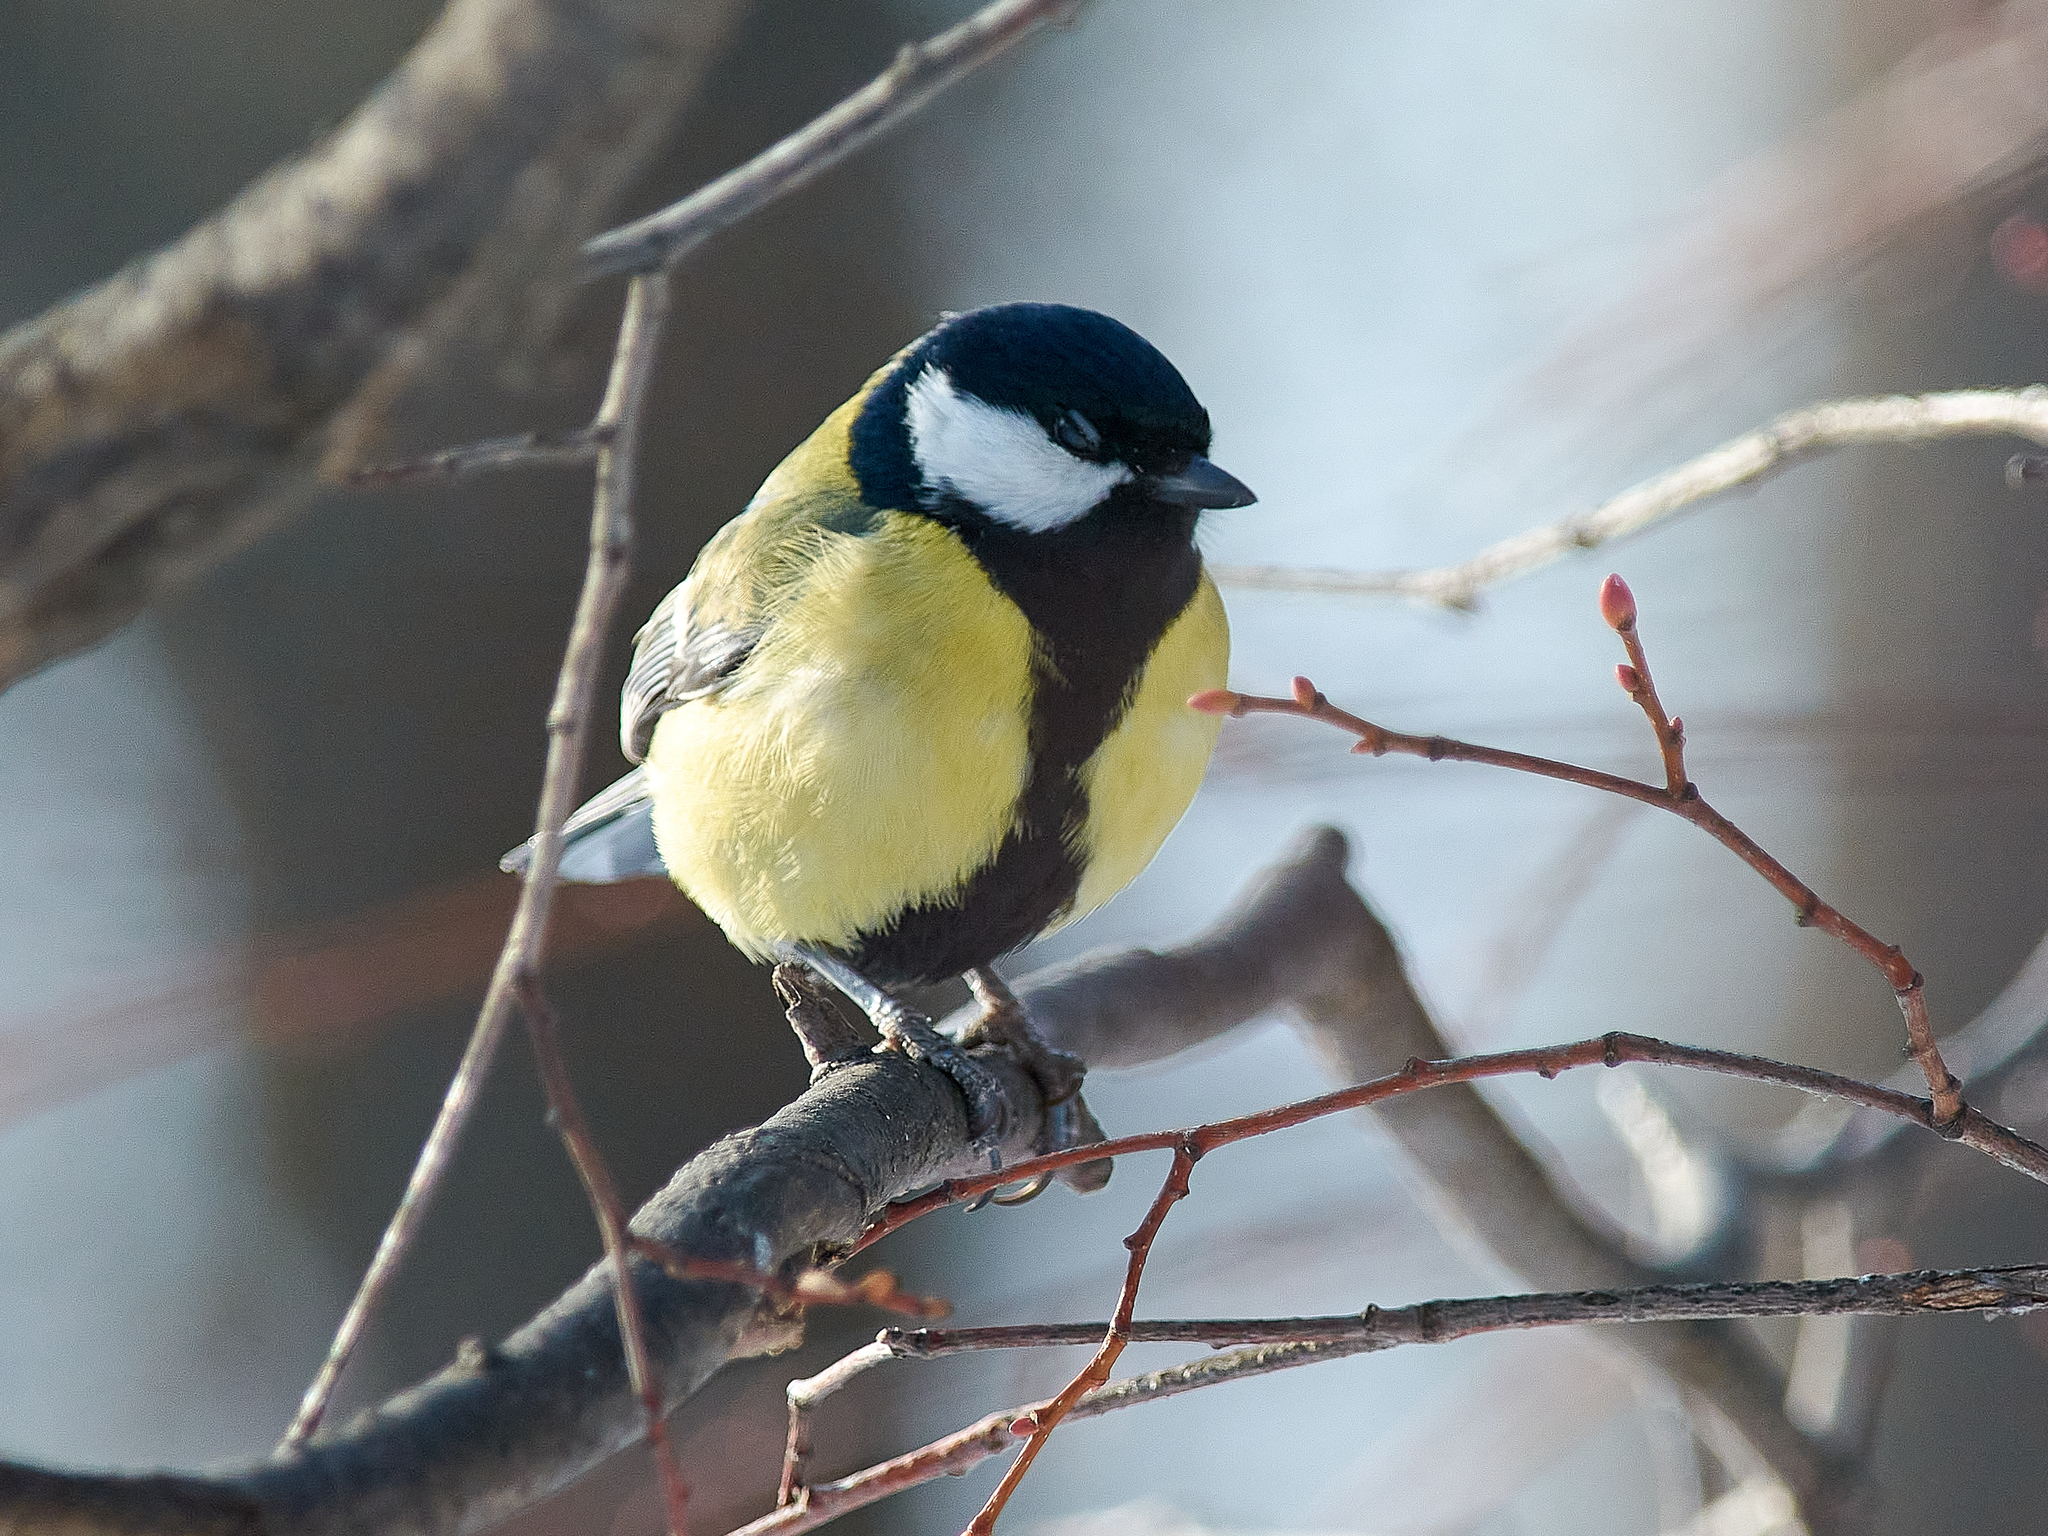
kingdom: Animalia
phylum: Chordata
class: Aves
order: Passeriformes
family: Paridae
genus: Parus
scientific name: Parus major
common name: Great tit
